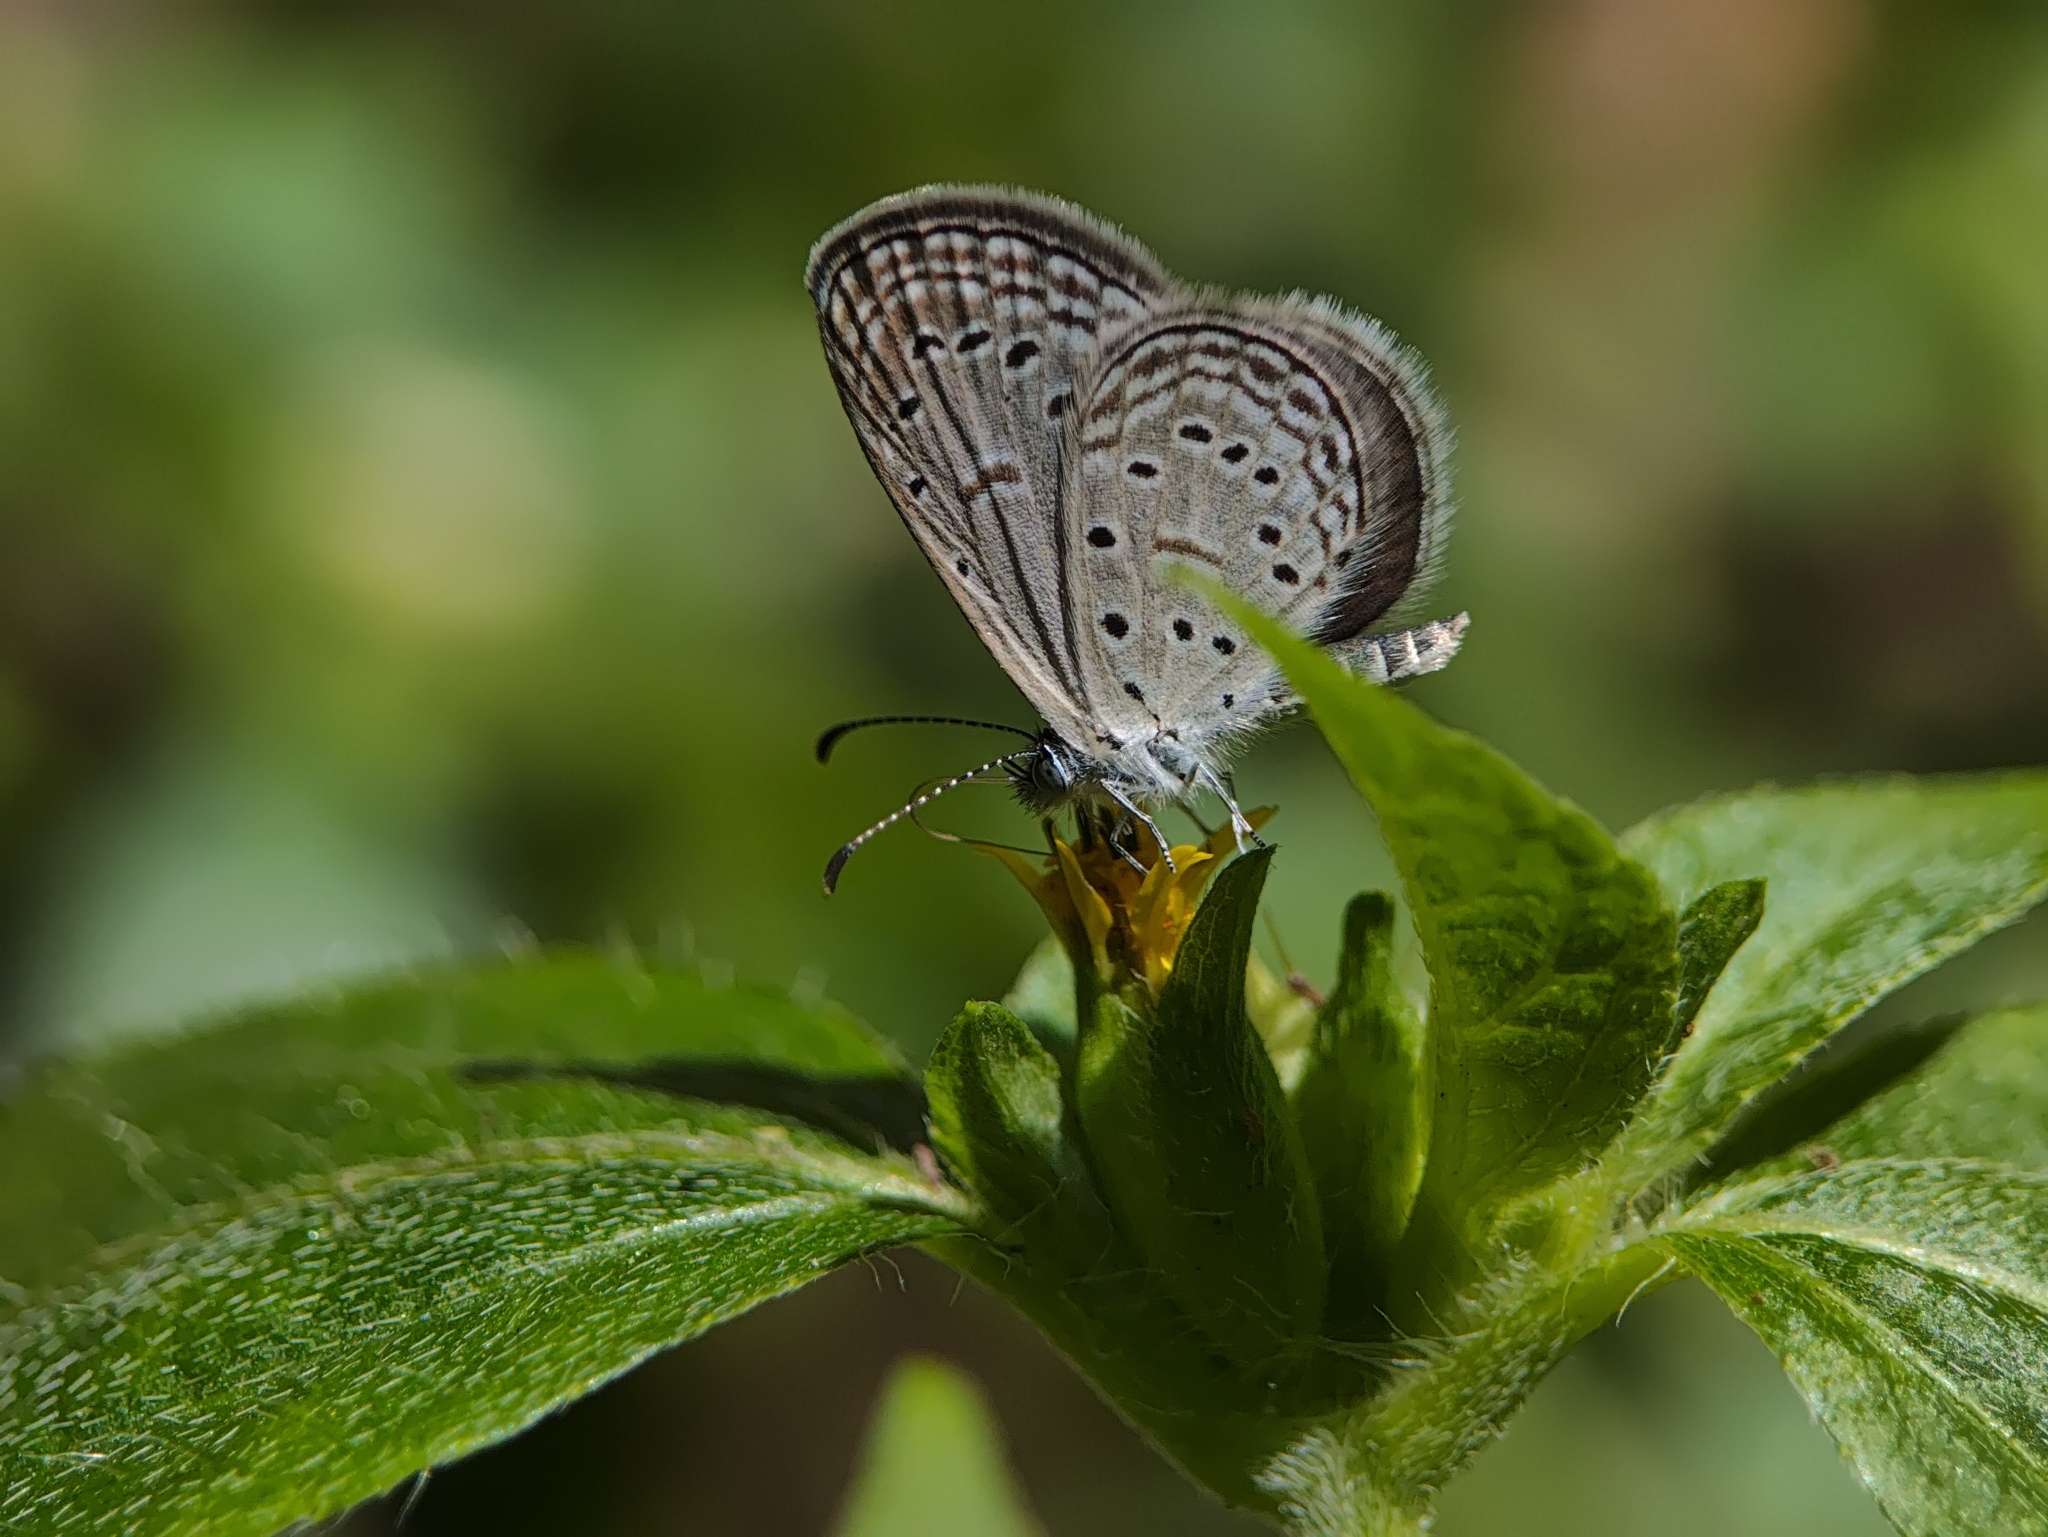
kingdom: Animalia
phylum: Arthropoda
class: Insecta
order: Lepidoptera
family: Lycaenidae
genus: Zizula
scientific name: Zizula hylax
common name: Gaika blue
